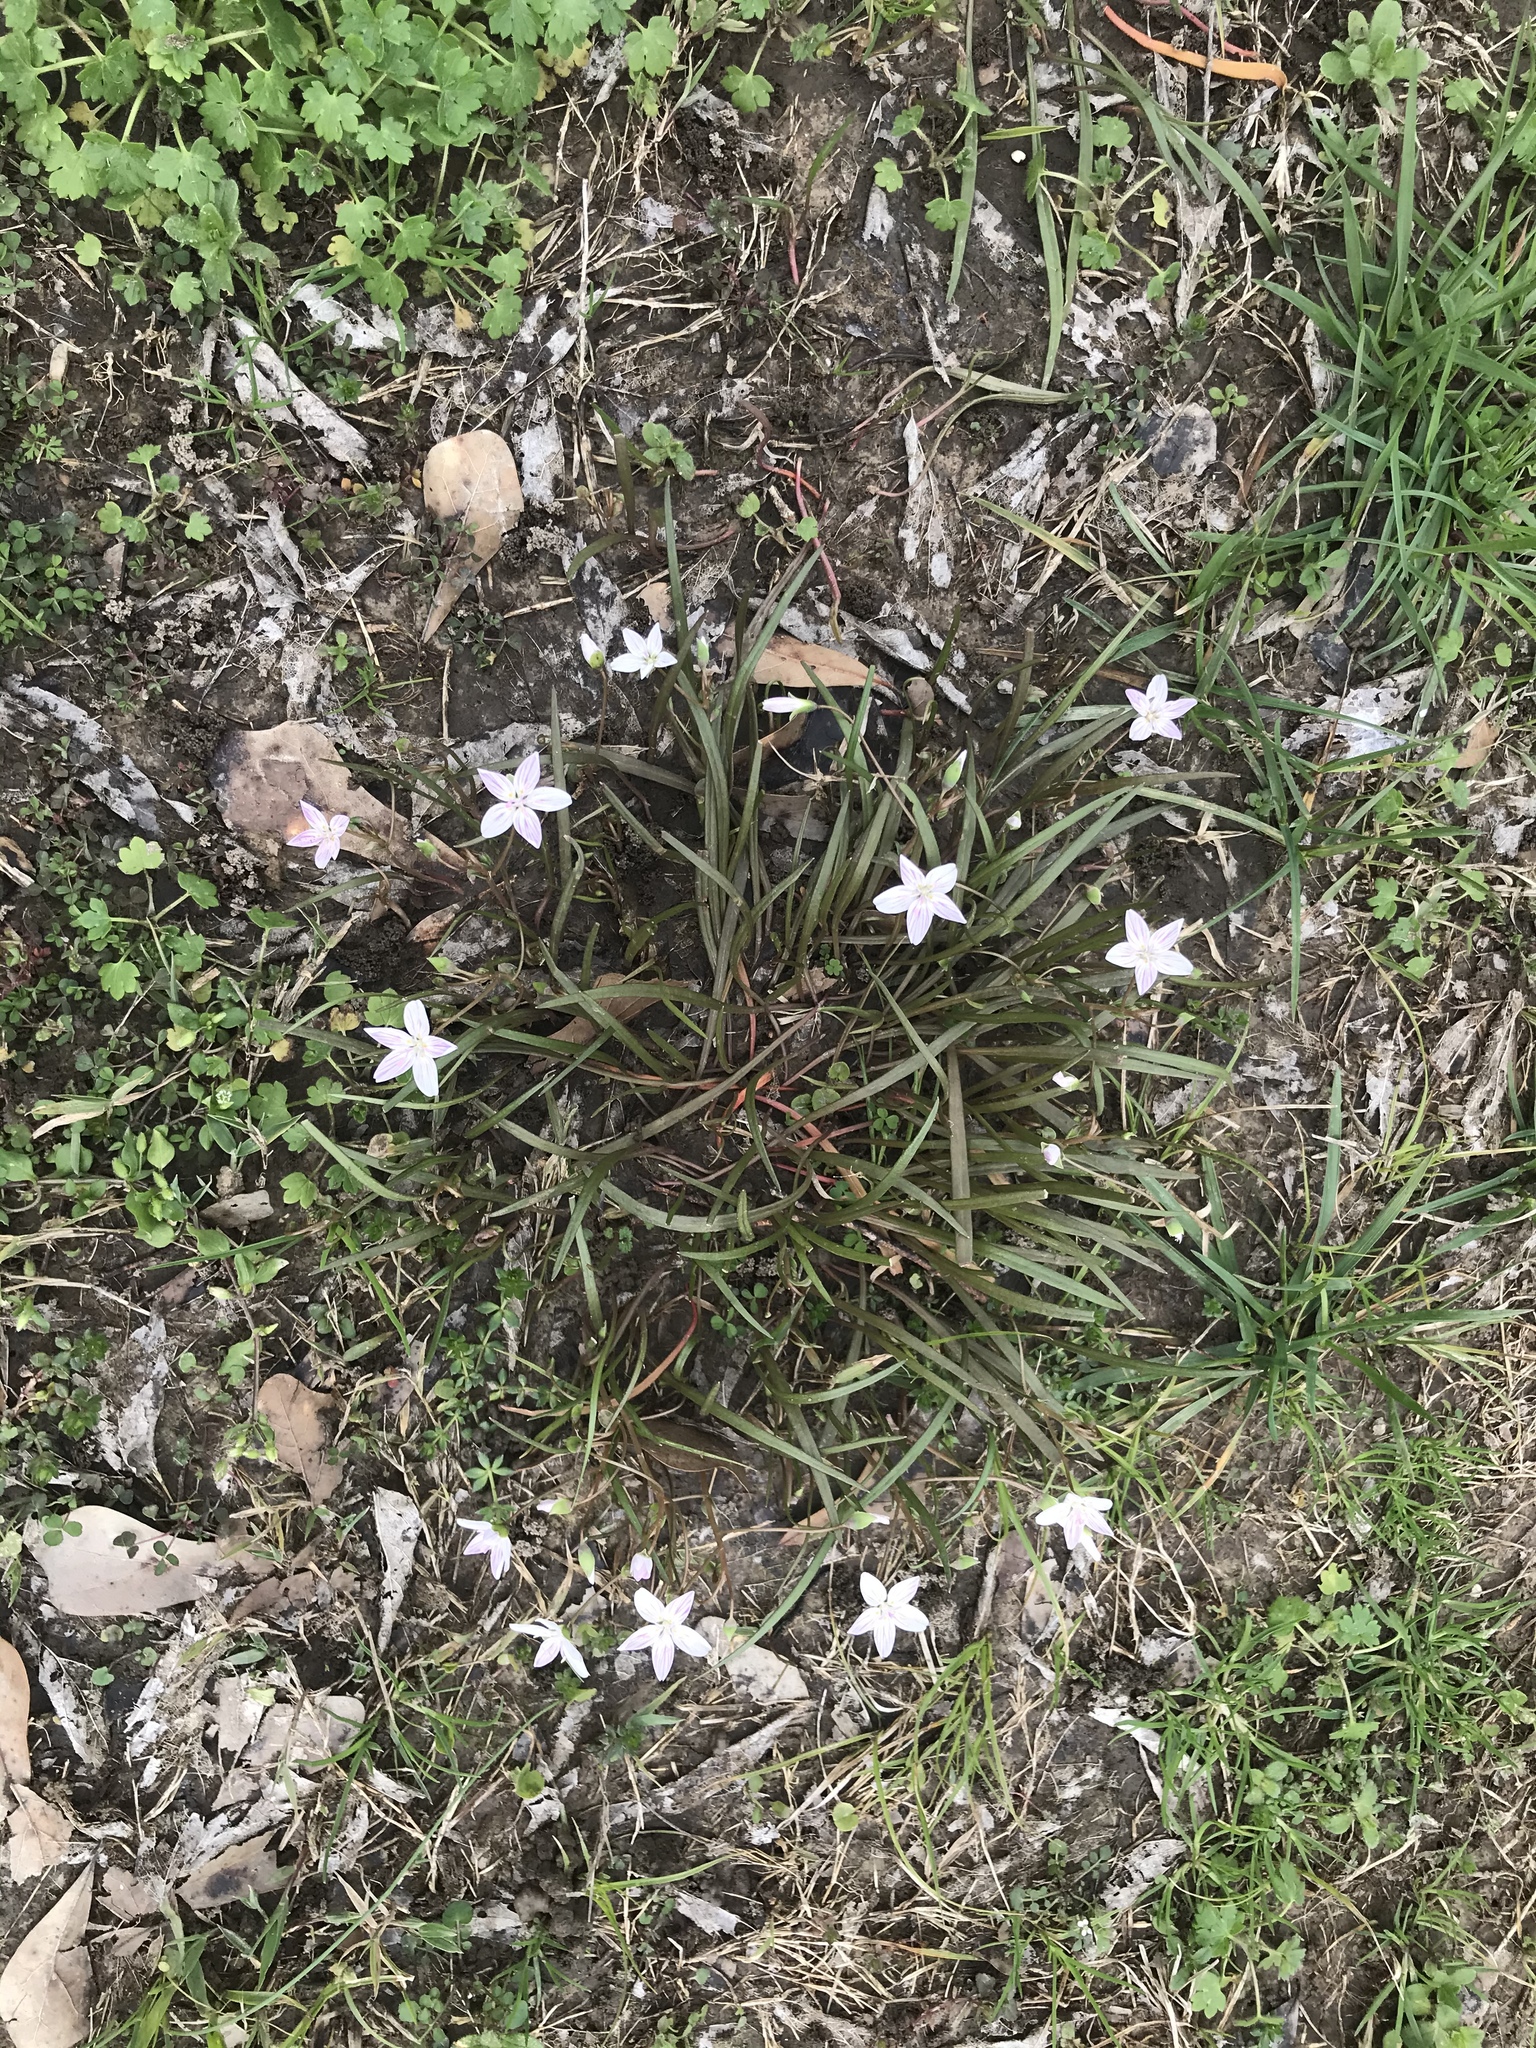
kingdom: Plantae
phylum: Tracheophyta
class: Magnoliopsida
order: Caryophyllales
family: Montiaceae
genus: Claytonia
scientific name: Claytonia virginica
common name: Virginia springbeauty
